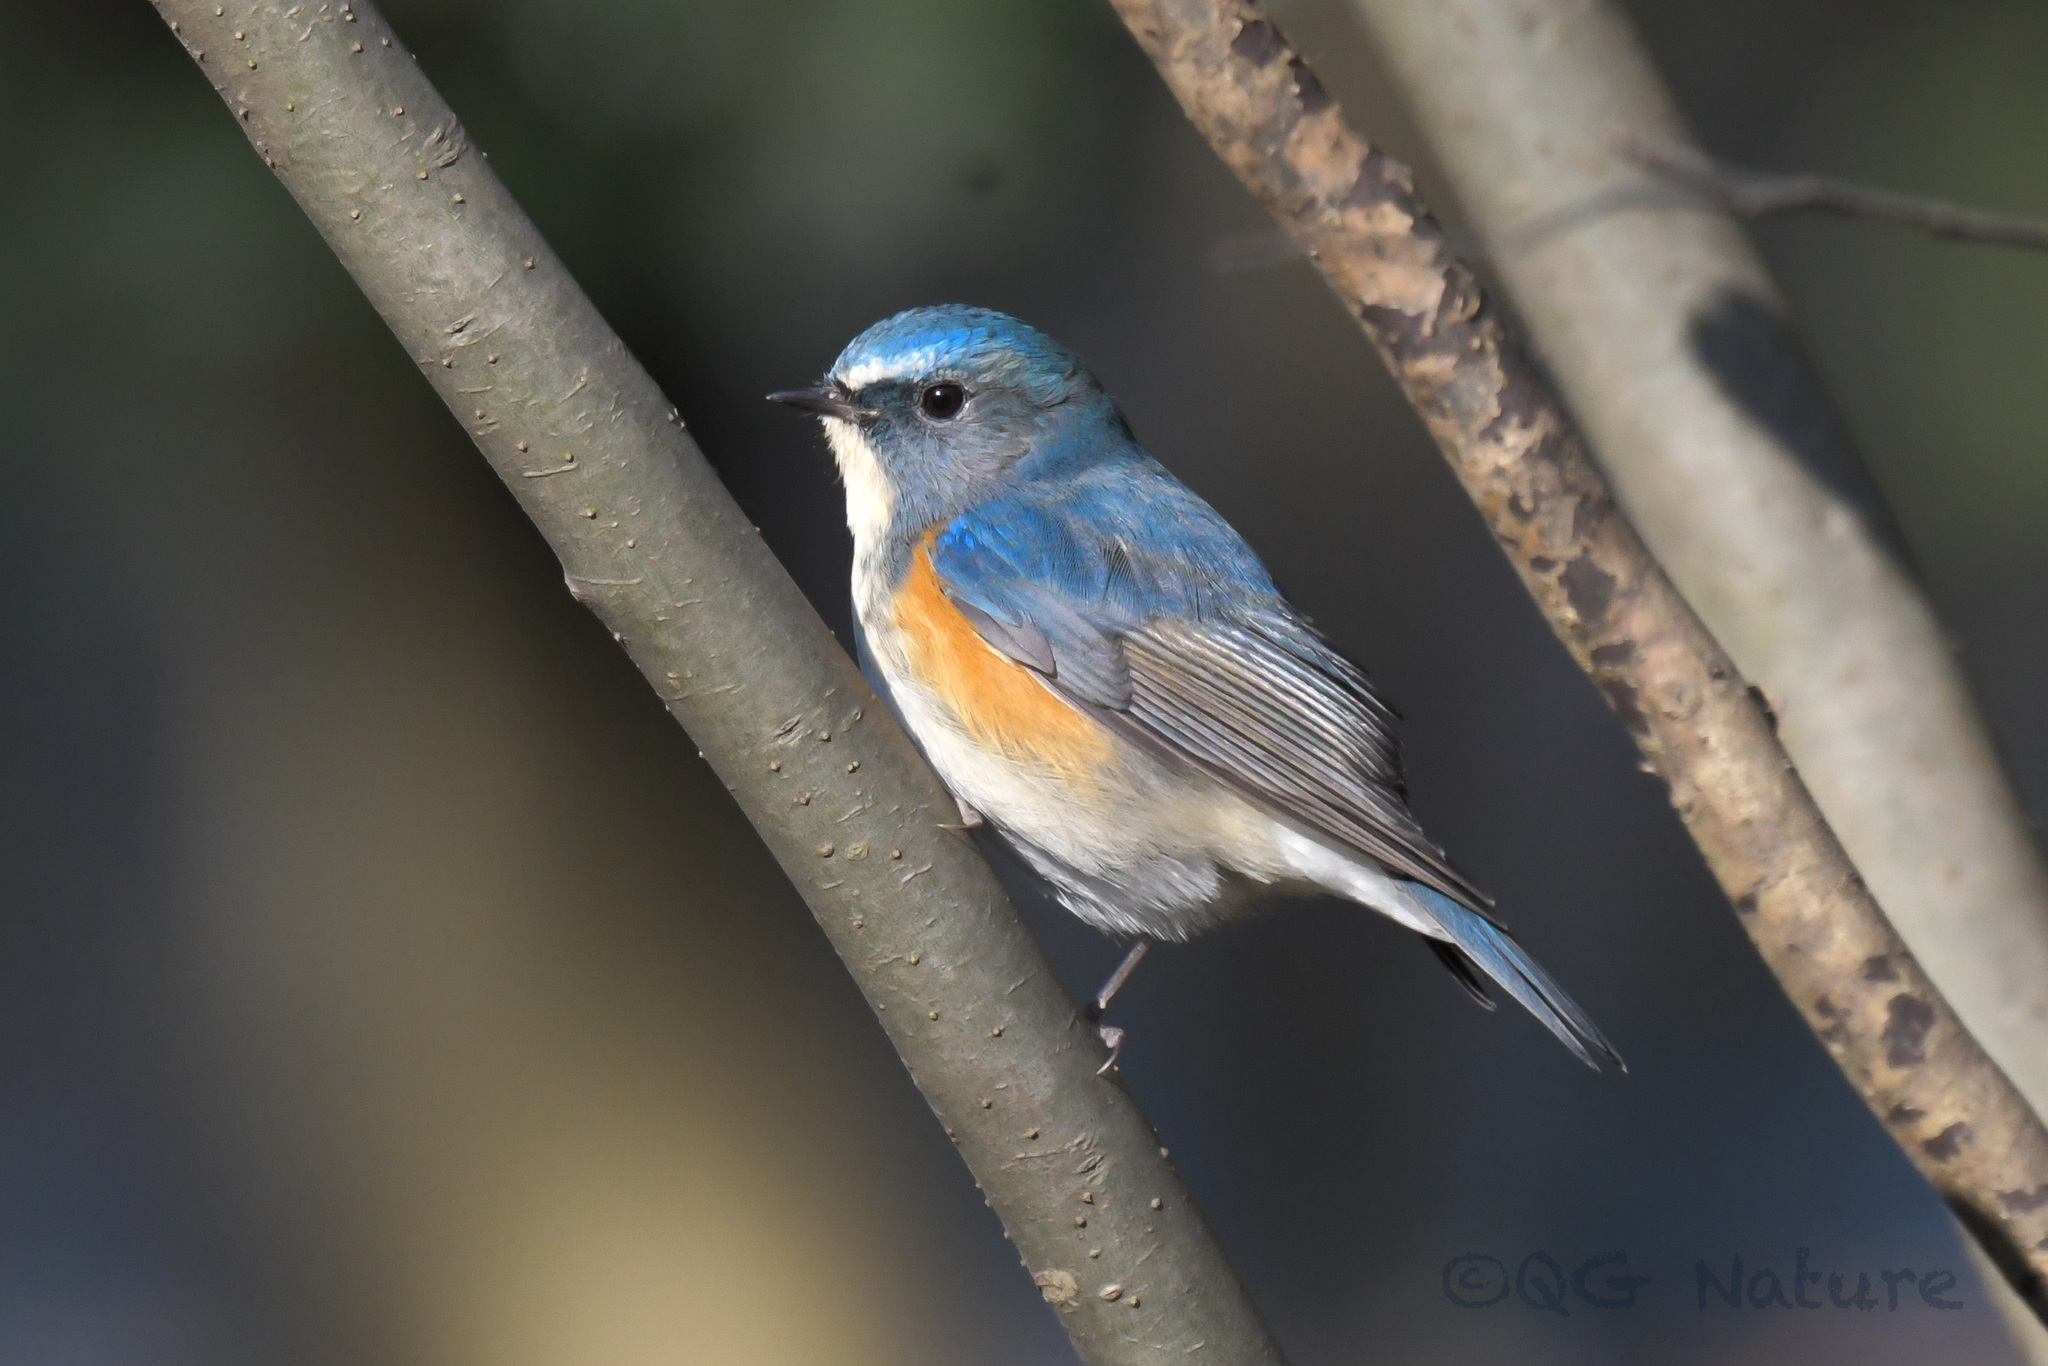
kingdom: Animalia
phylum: Chordata
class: Aves
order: Passeriformes
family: Muscicapidae
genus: Tarsiger
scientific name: Tarsiger cyanurus
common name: Red-flanked bluetail
